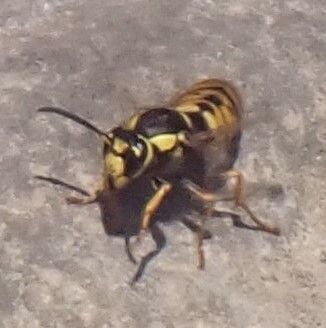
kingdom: Animalia
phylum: Arthropoda
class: Insecta
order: Hymenoptera
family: Vespidae
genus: Vespula
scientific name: Vespula atropilosa
